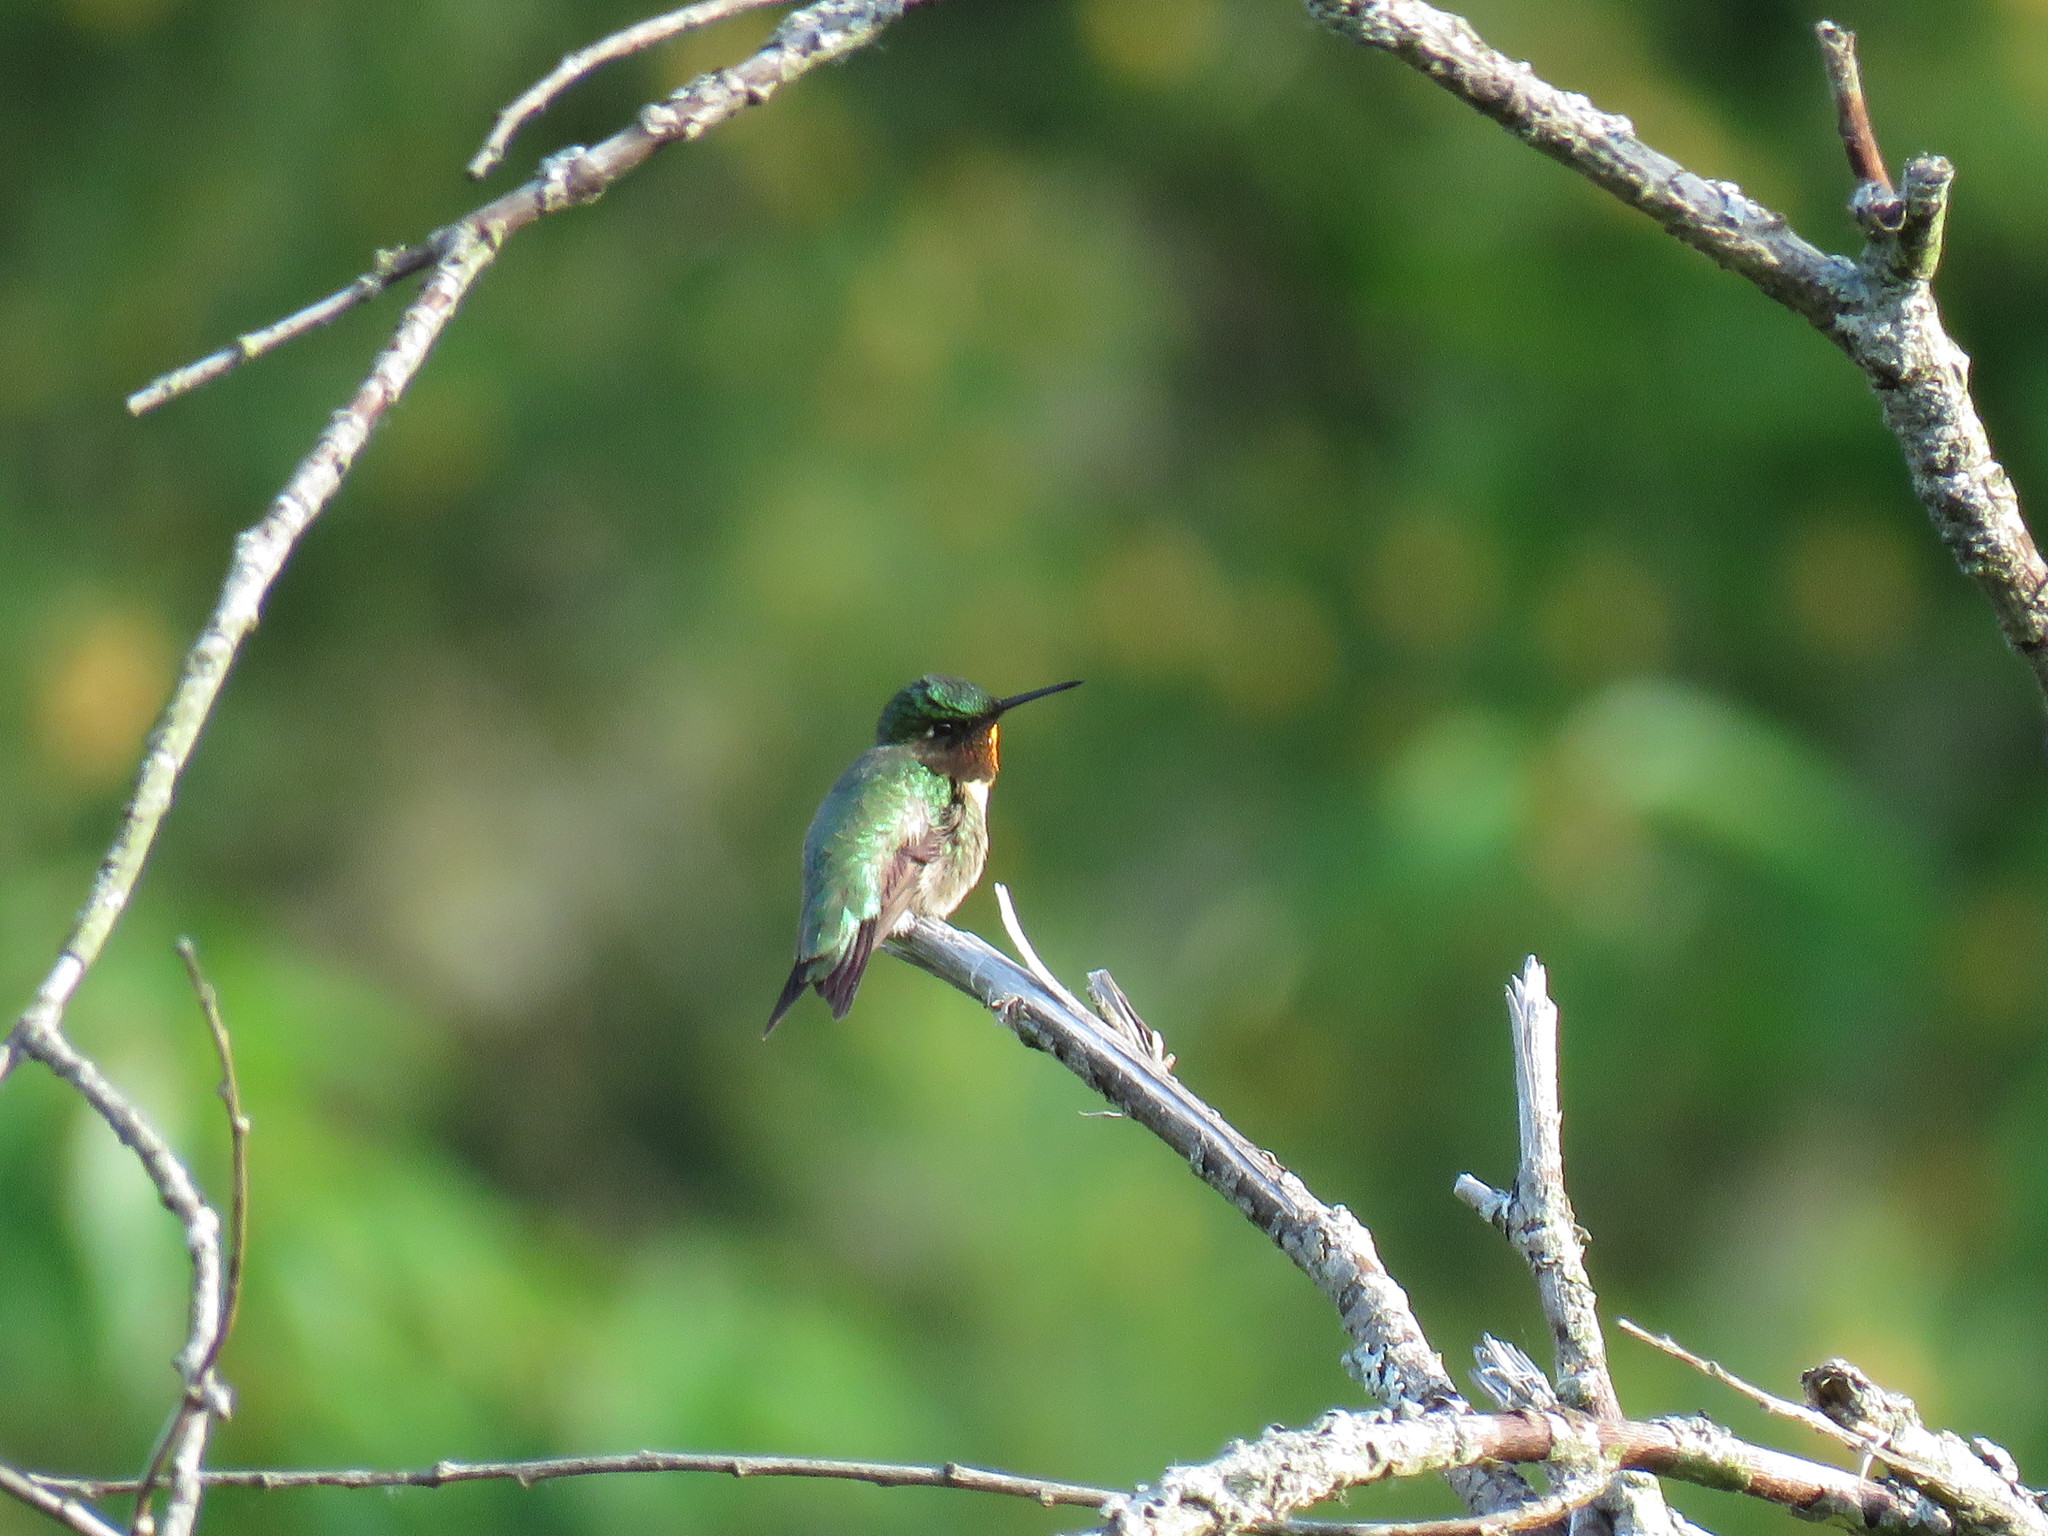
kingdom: Animalia
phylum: Chordata
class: Aves
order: Apodiformes
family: Trochilidae
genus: Archilochus
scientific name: Archilochus colubris
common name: Ruby-throated hummingbird
